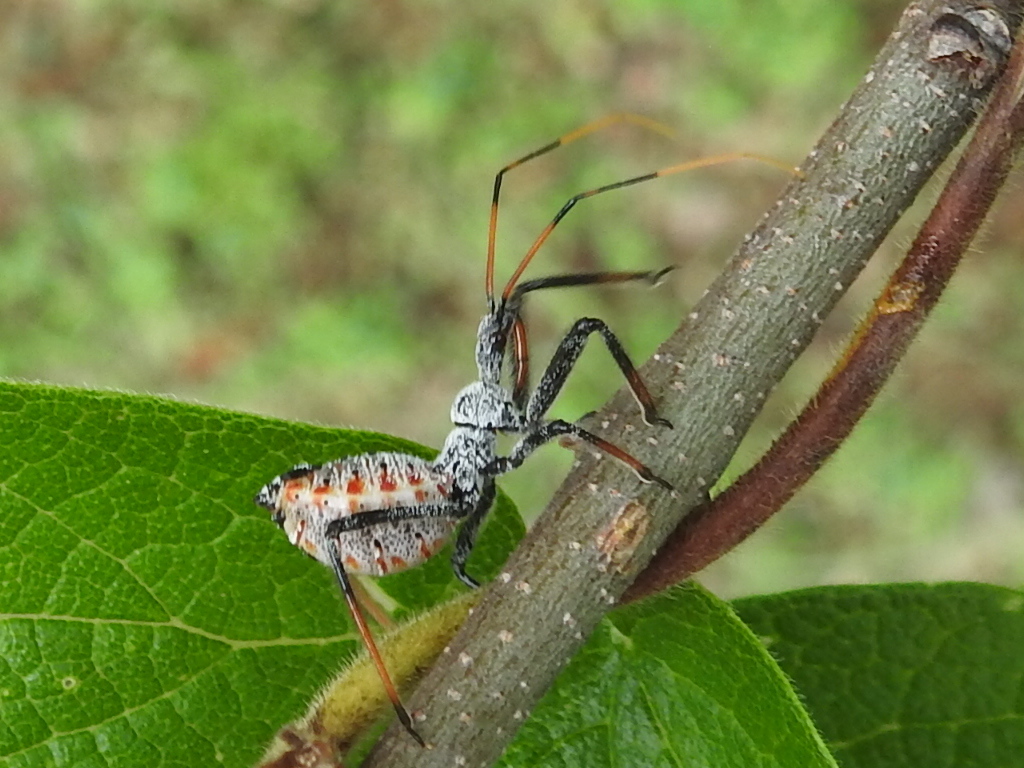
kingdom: Animalia
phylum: Arthropoda
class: Insecta
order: Hemiptera
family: Reduviidae
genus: Arilus
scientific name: Arilus cristatus
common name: North american wheel bug
